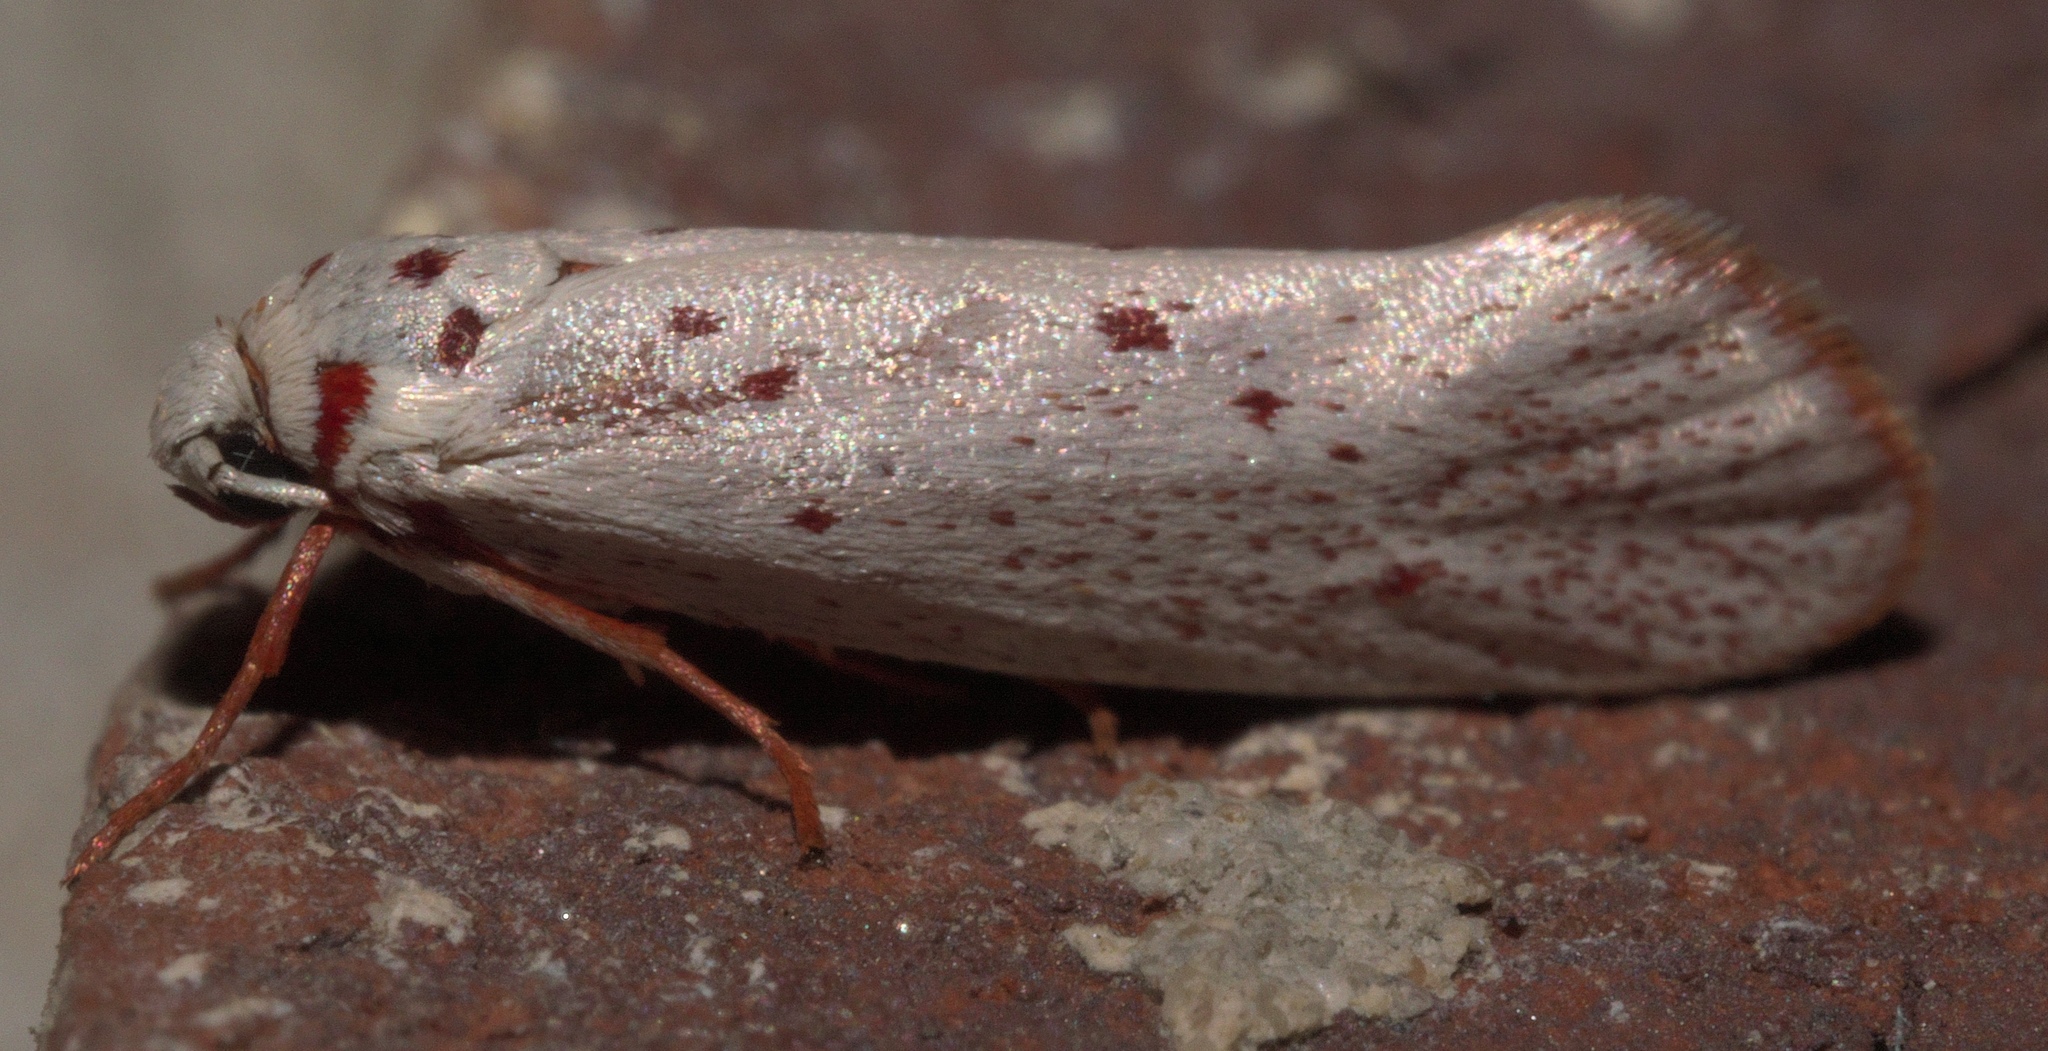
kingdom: Animalia
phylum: Arthropoda
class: Insecta
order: Lepidoptera
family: Lacturidae
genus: Lactura
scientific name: Lactura
